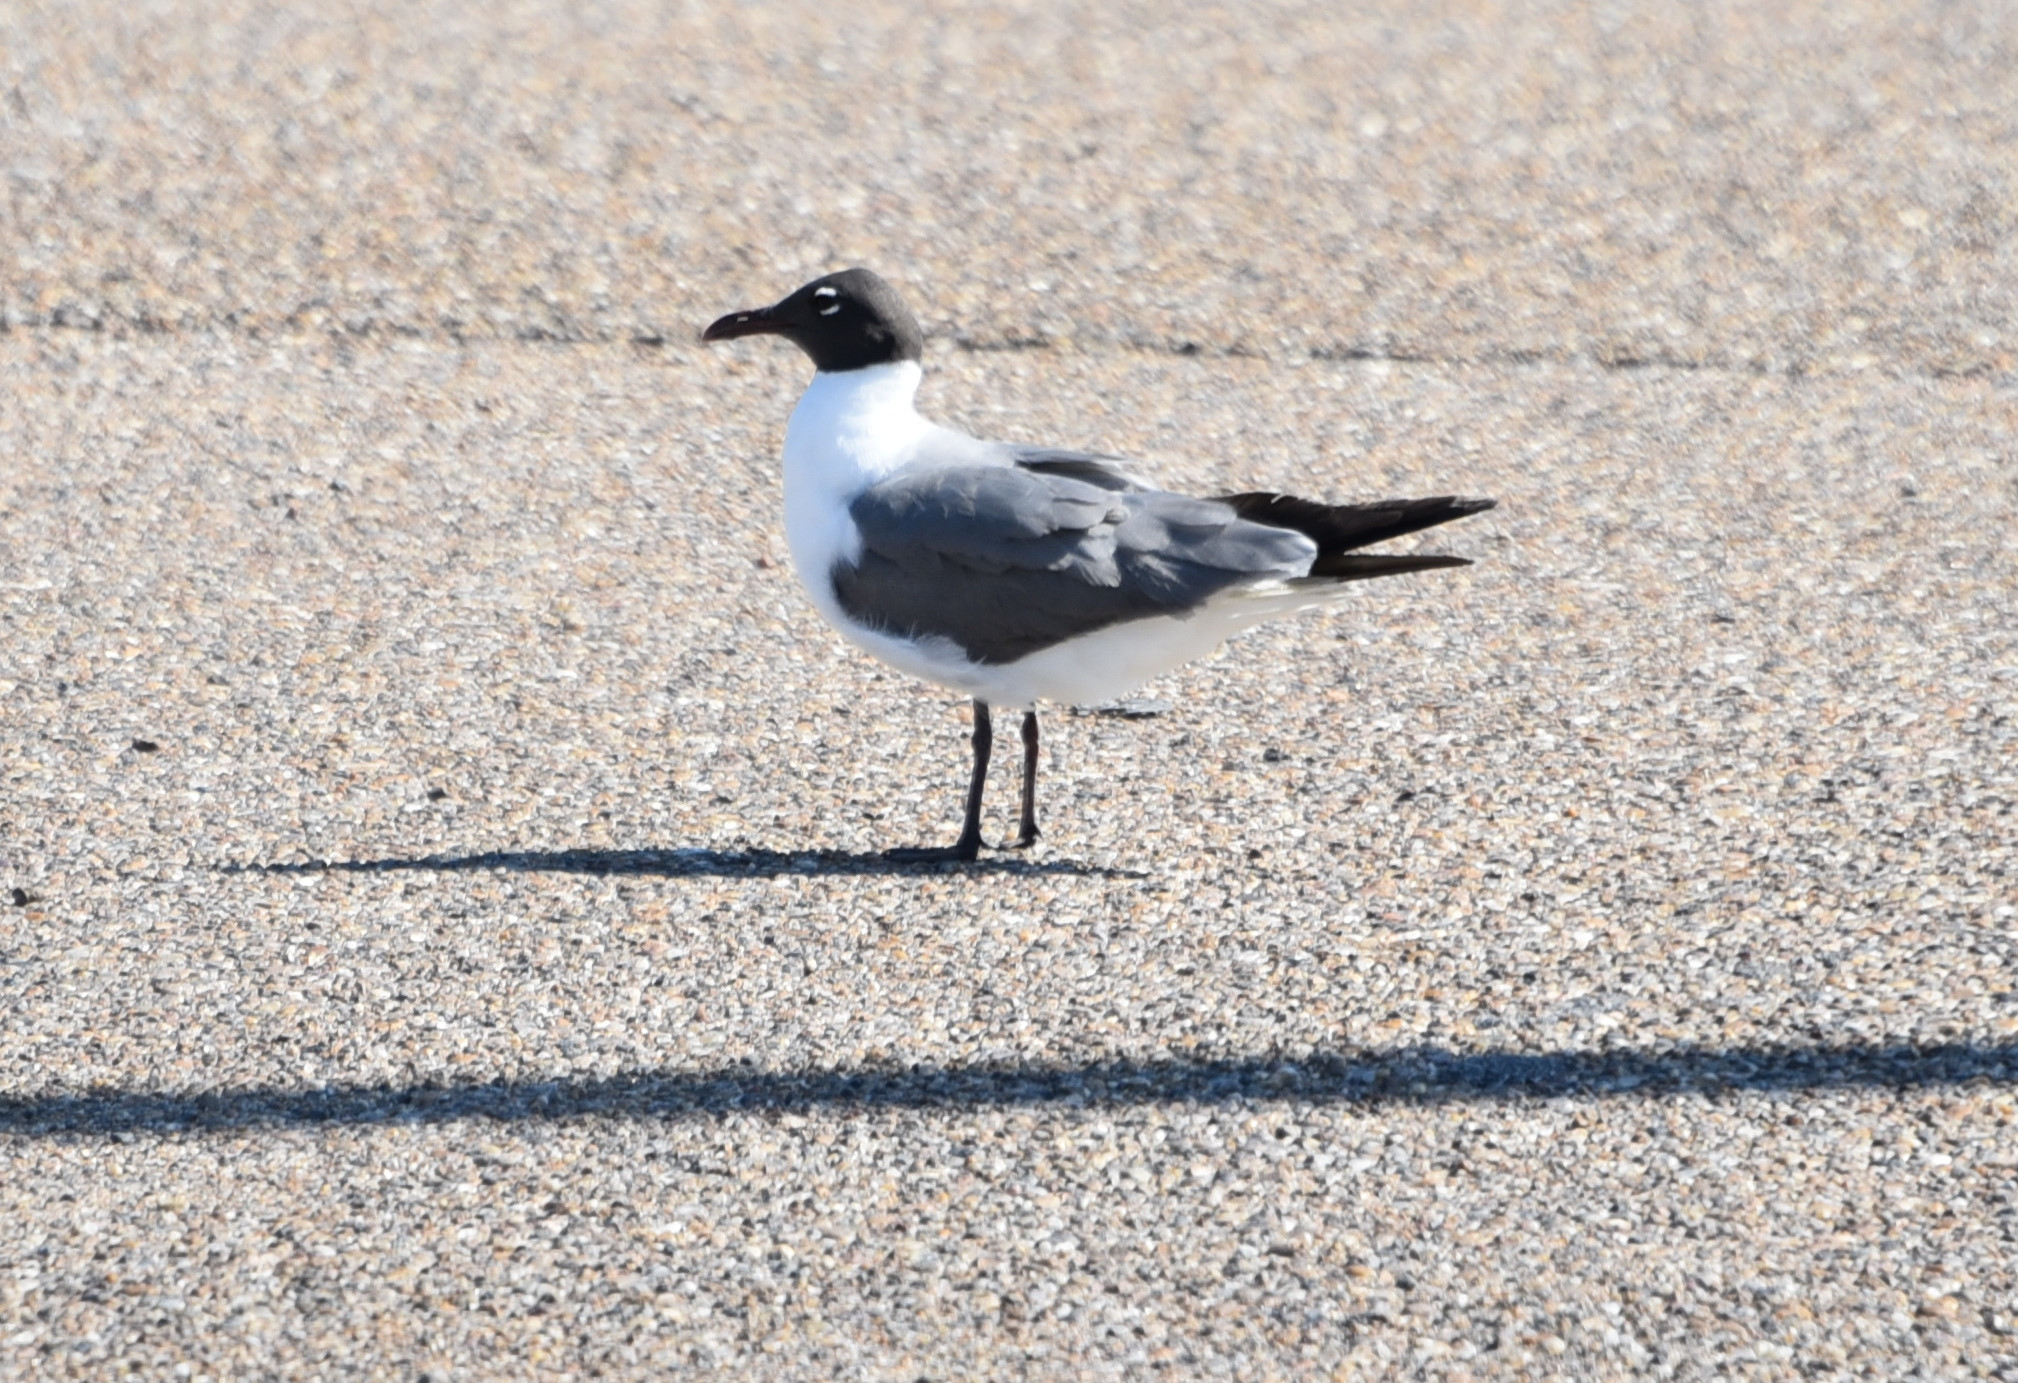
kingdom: Animalia
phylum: Chordata
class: Aves
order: Charadriiformes
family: Laridae
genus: Leucophaeus
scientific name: Leucophaeus atricilla
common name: Laughing gull
